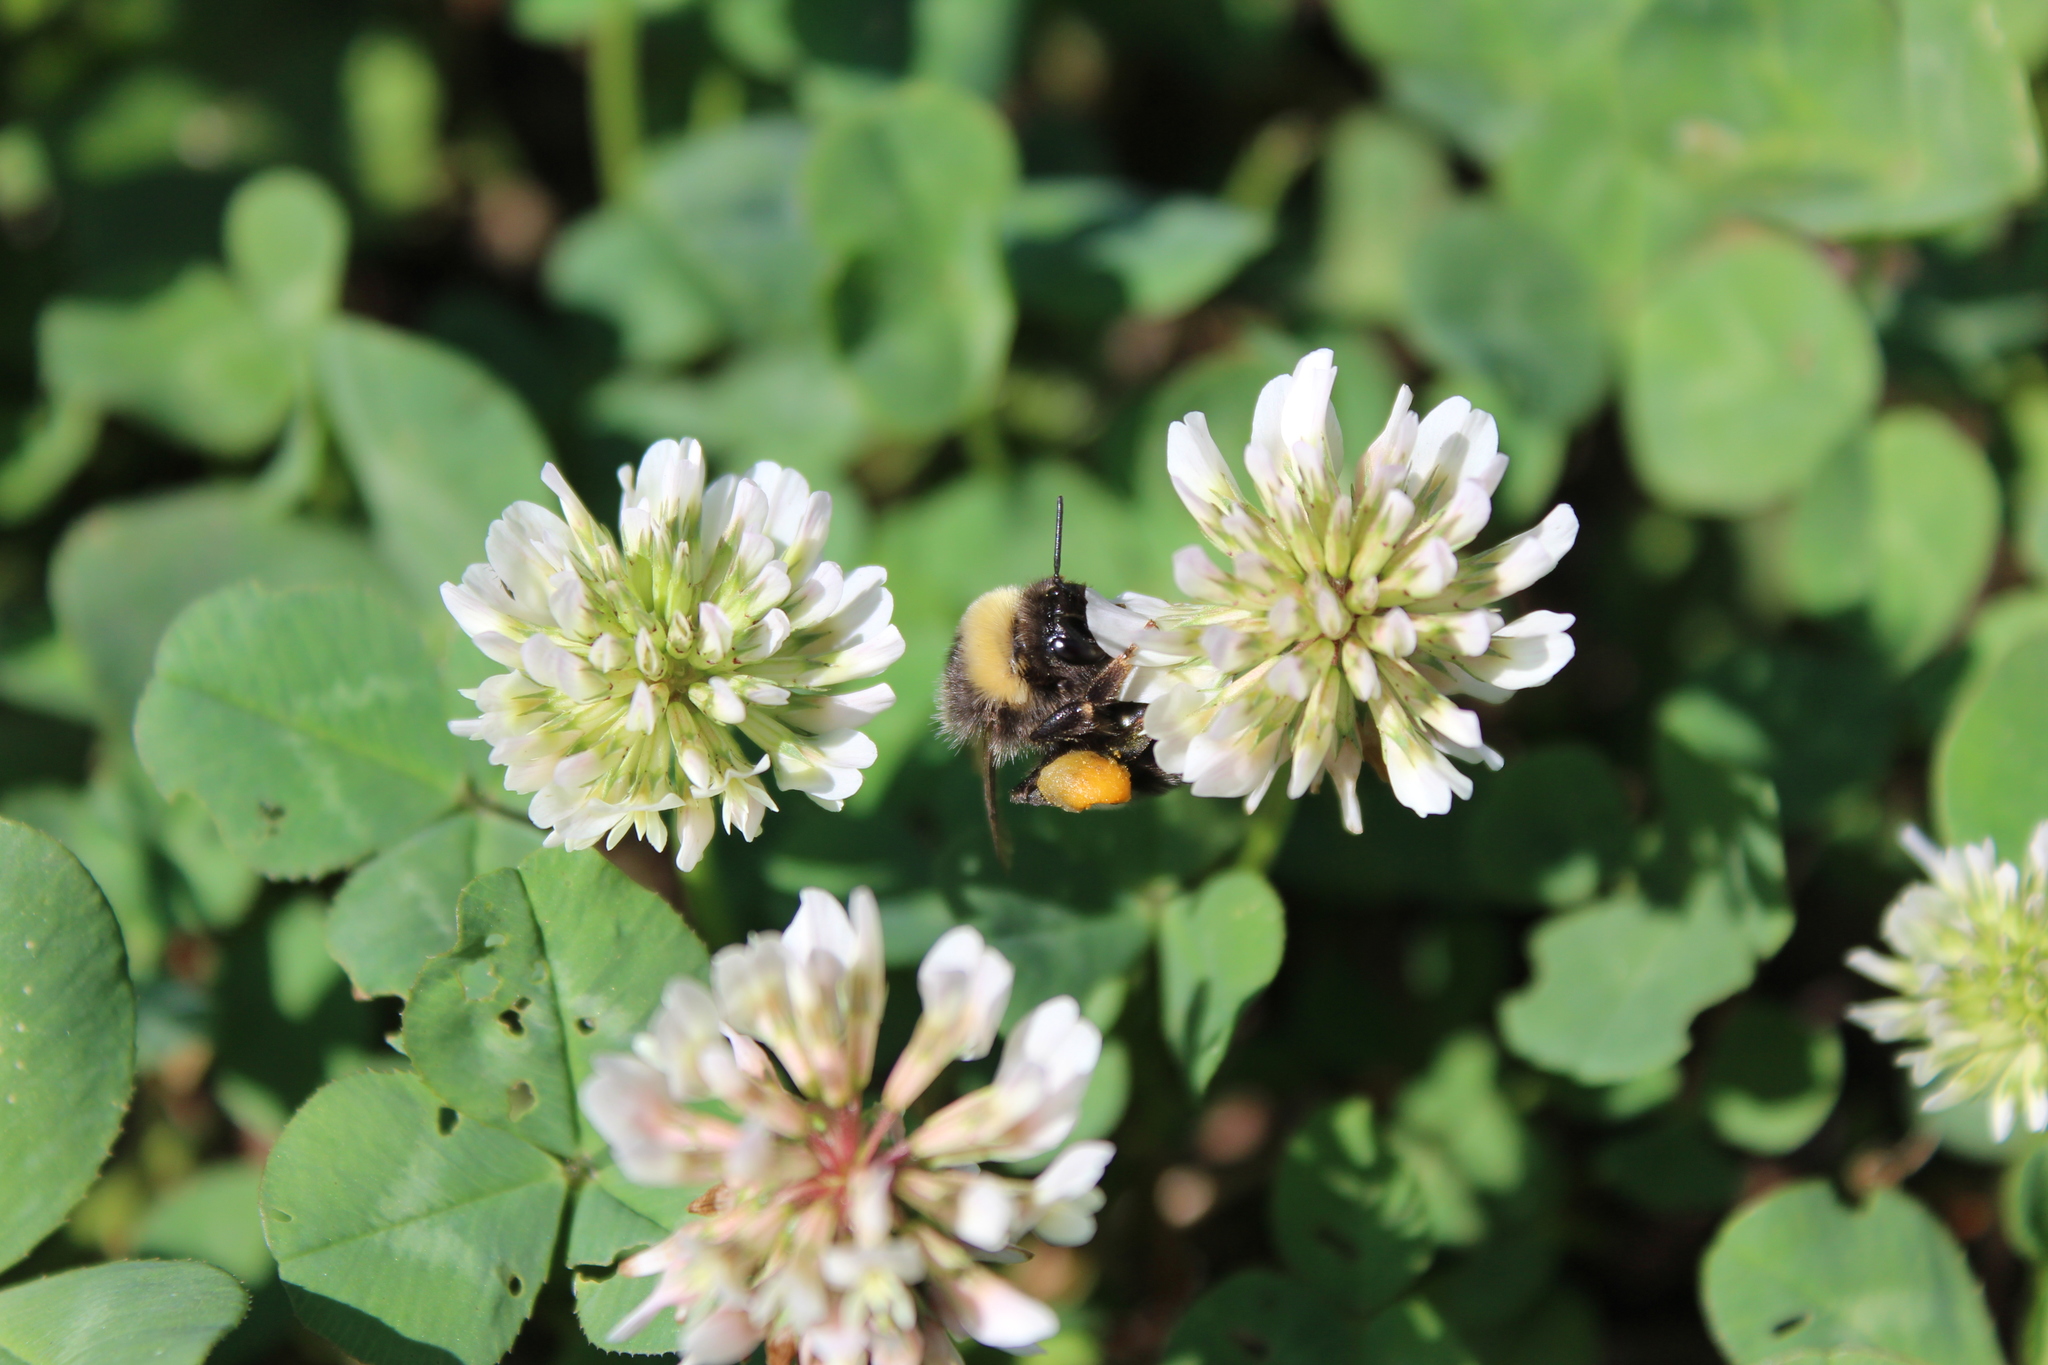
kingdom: Animalia
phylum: Arthropoda
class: Insecta
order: Hymenoptera
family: Apidae
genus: Bombus
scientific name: Bombus
